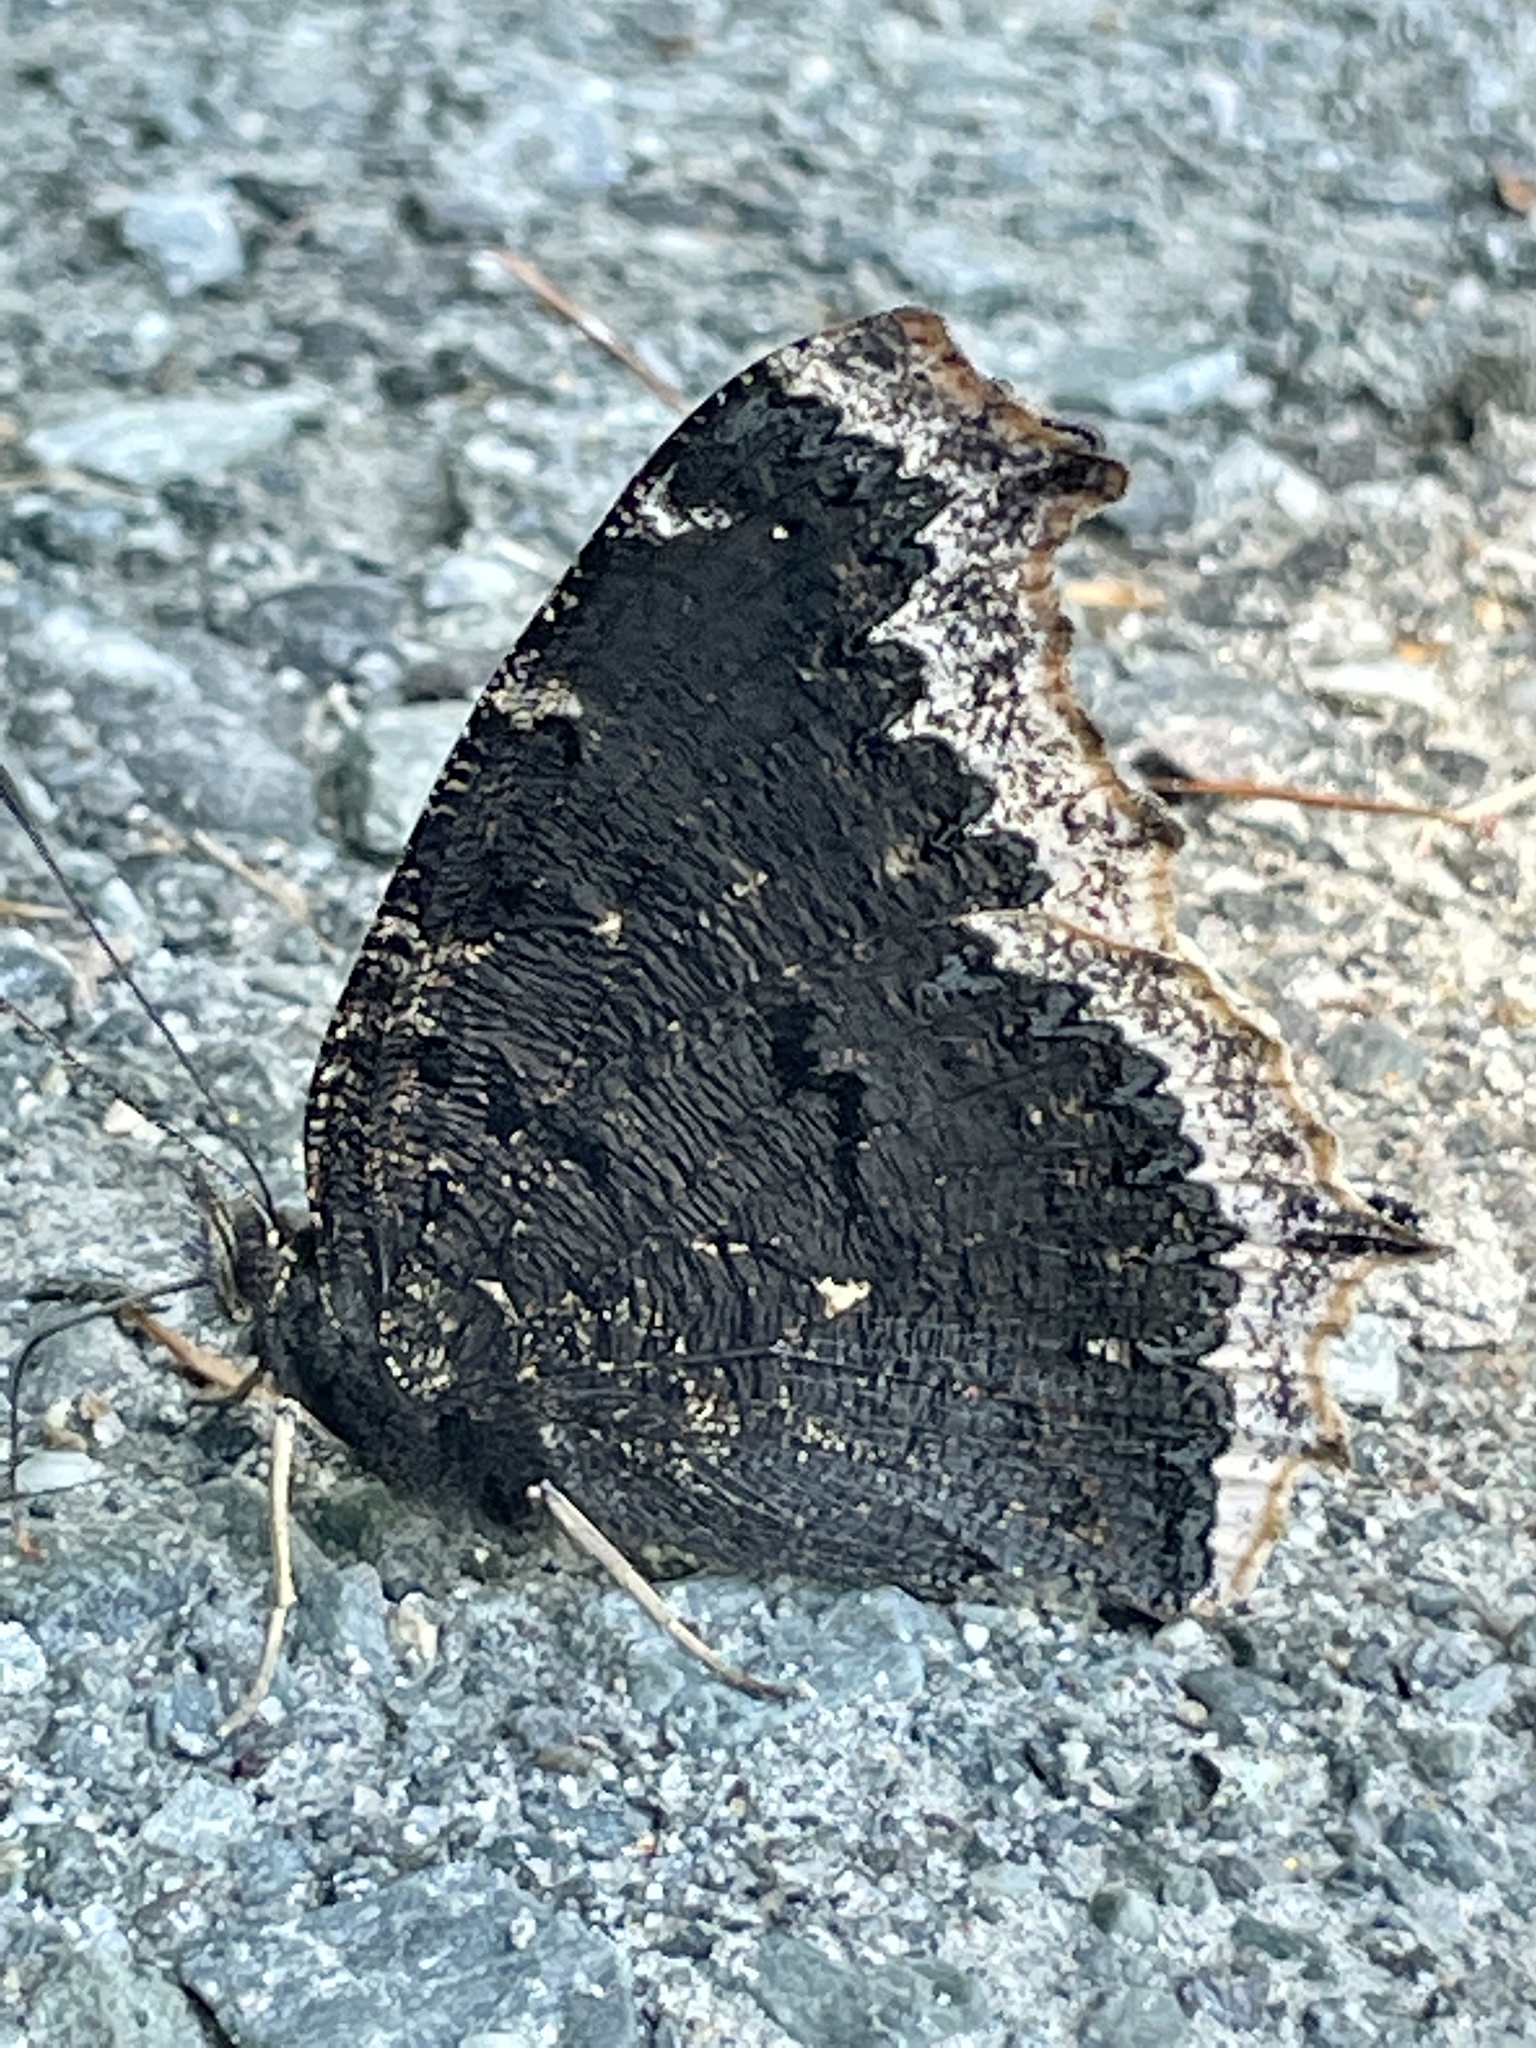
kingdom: Animalia
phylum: Arthropoda
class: Insecta
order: Lepidoptera
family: Nymphalidae
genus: Nymphalis
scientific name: Nymphalis antiopa
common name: Camberwell beauty
